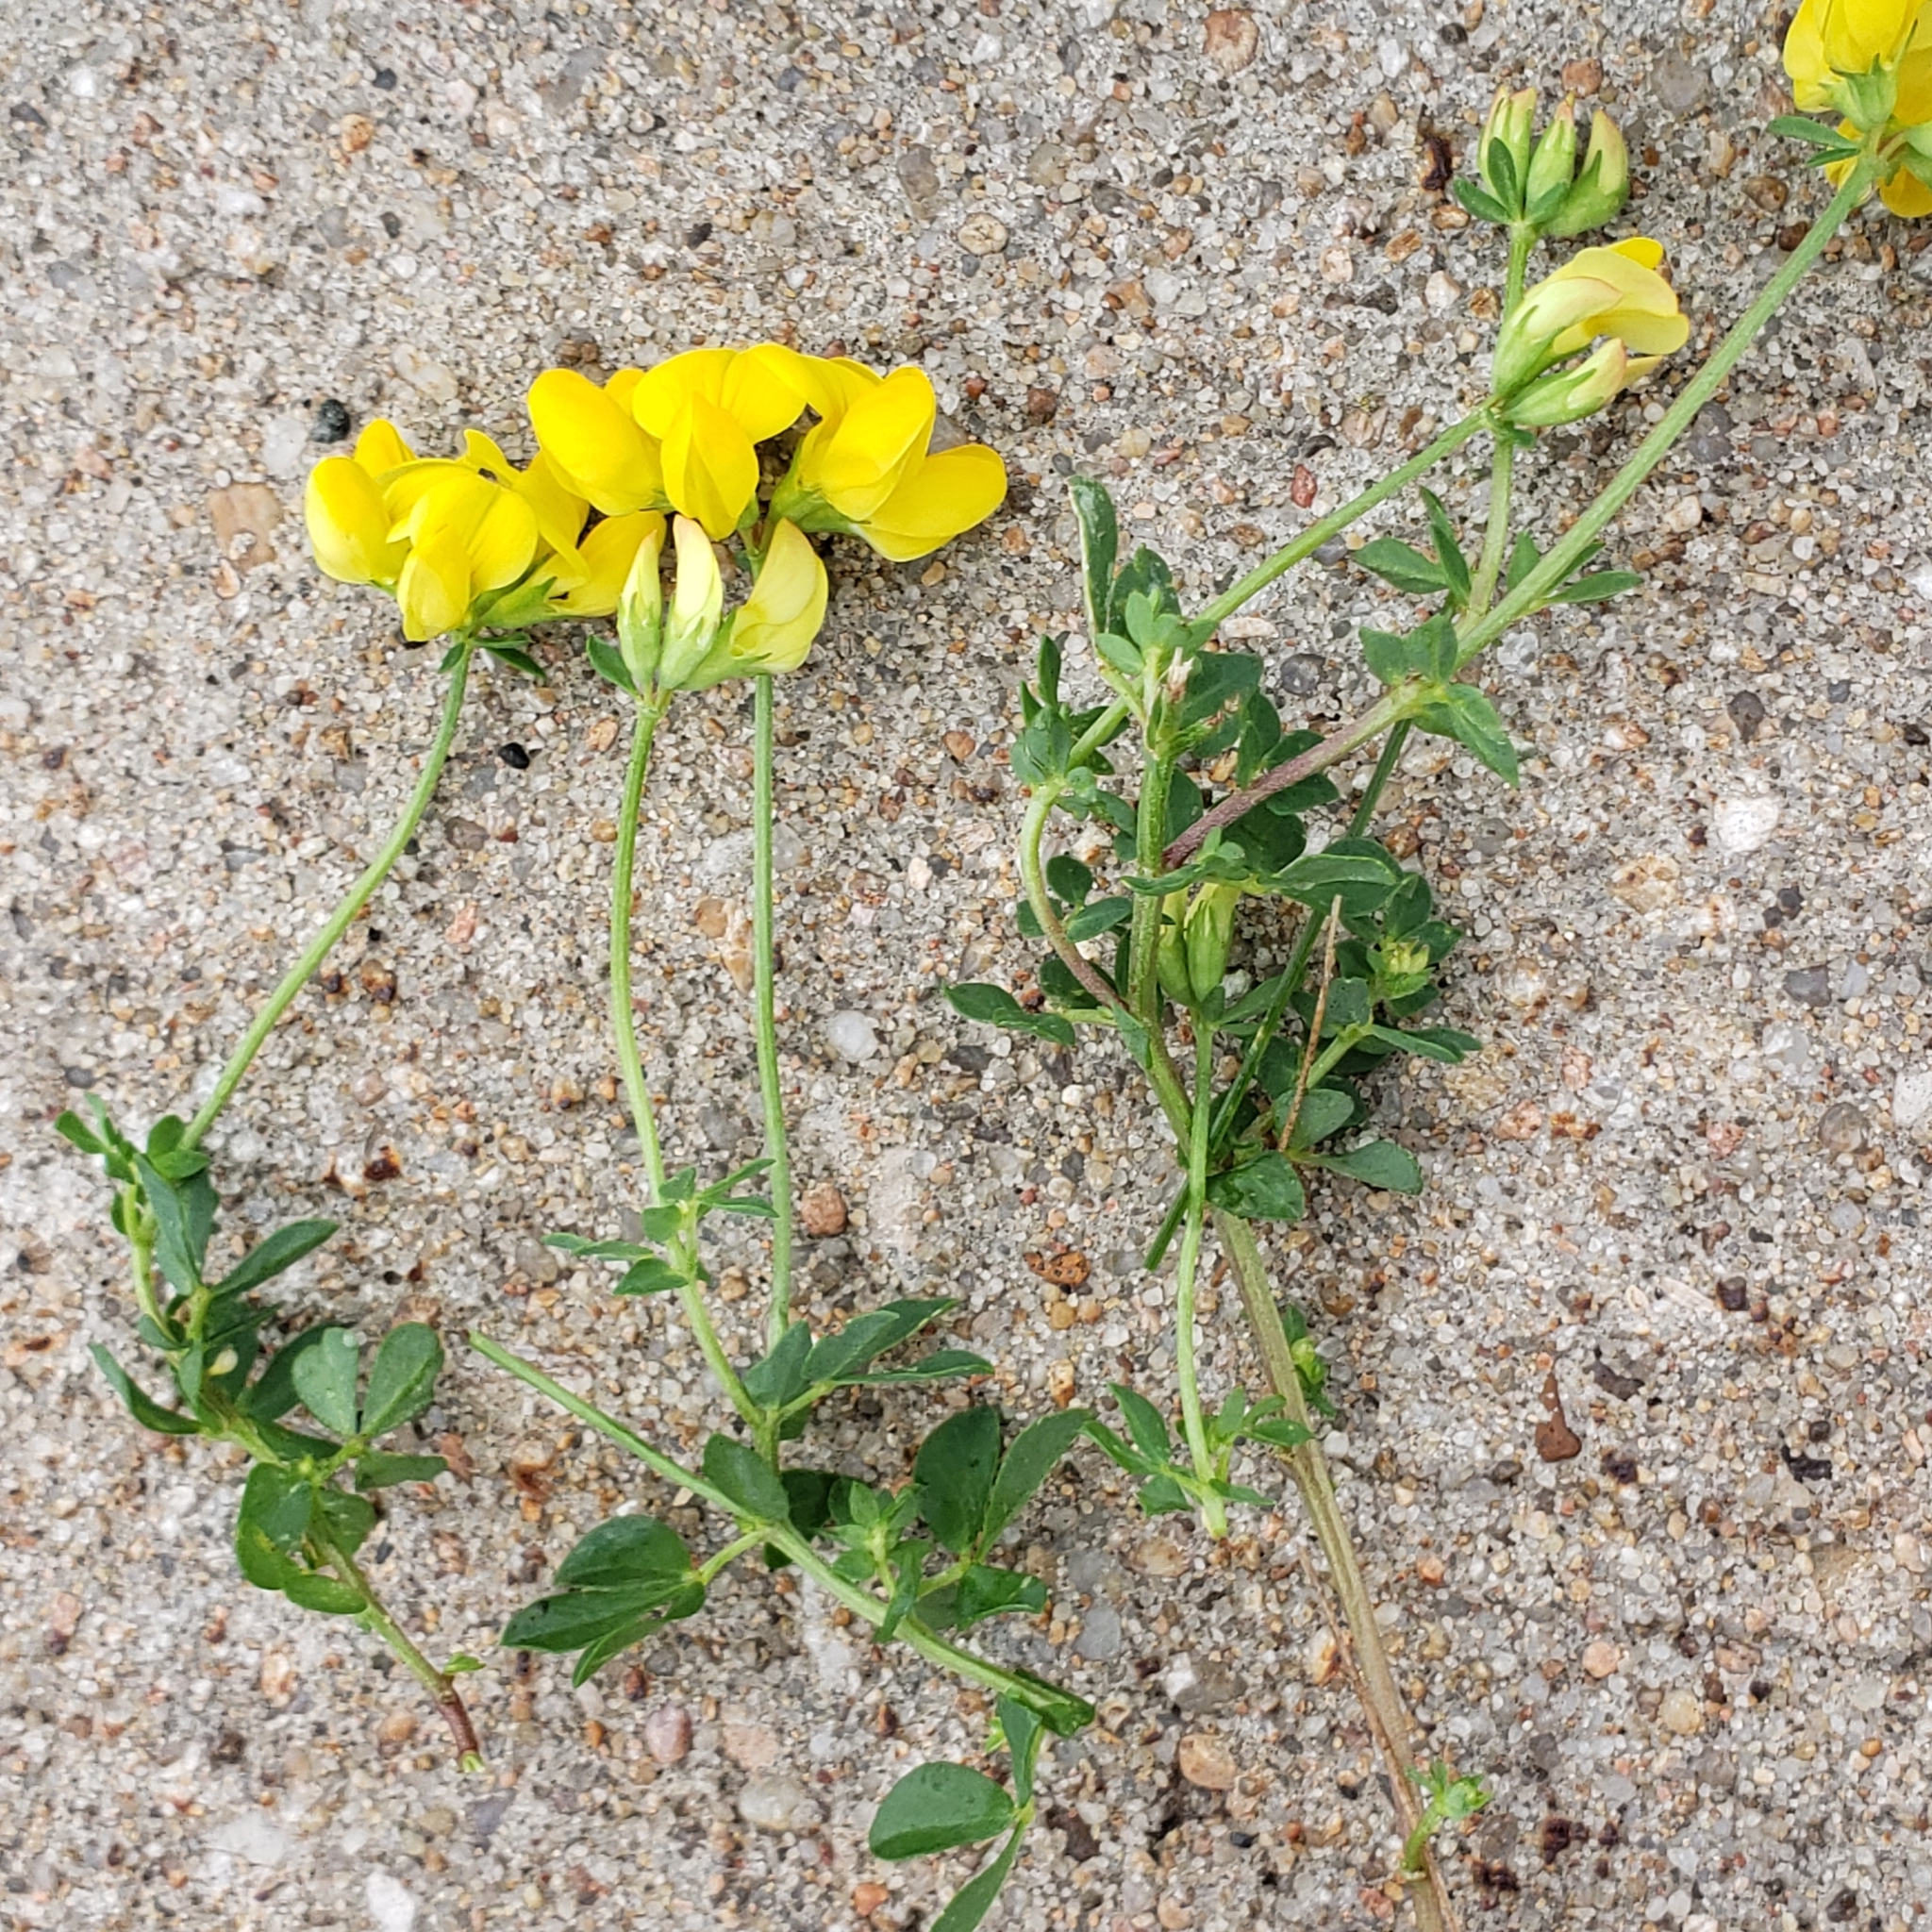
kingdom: Plantae
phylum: Tracheophyta
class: Magnoliopsida
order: Fabales
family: Fabaceae
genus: Lotus
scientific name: Lotus corniculatus
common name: Common bird's-foot-trefoil
